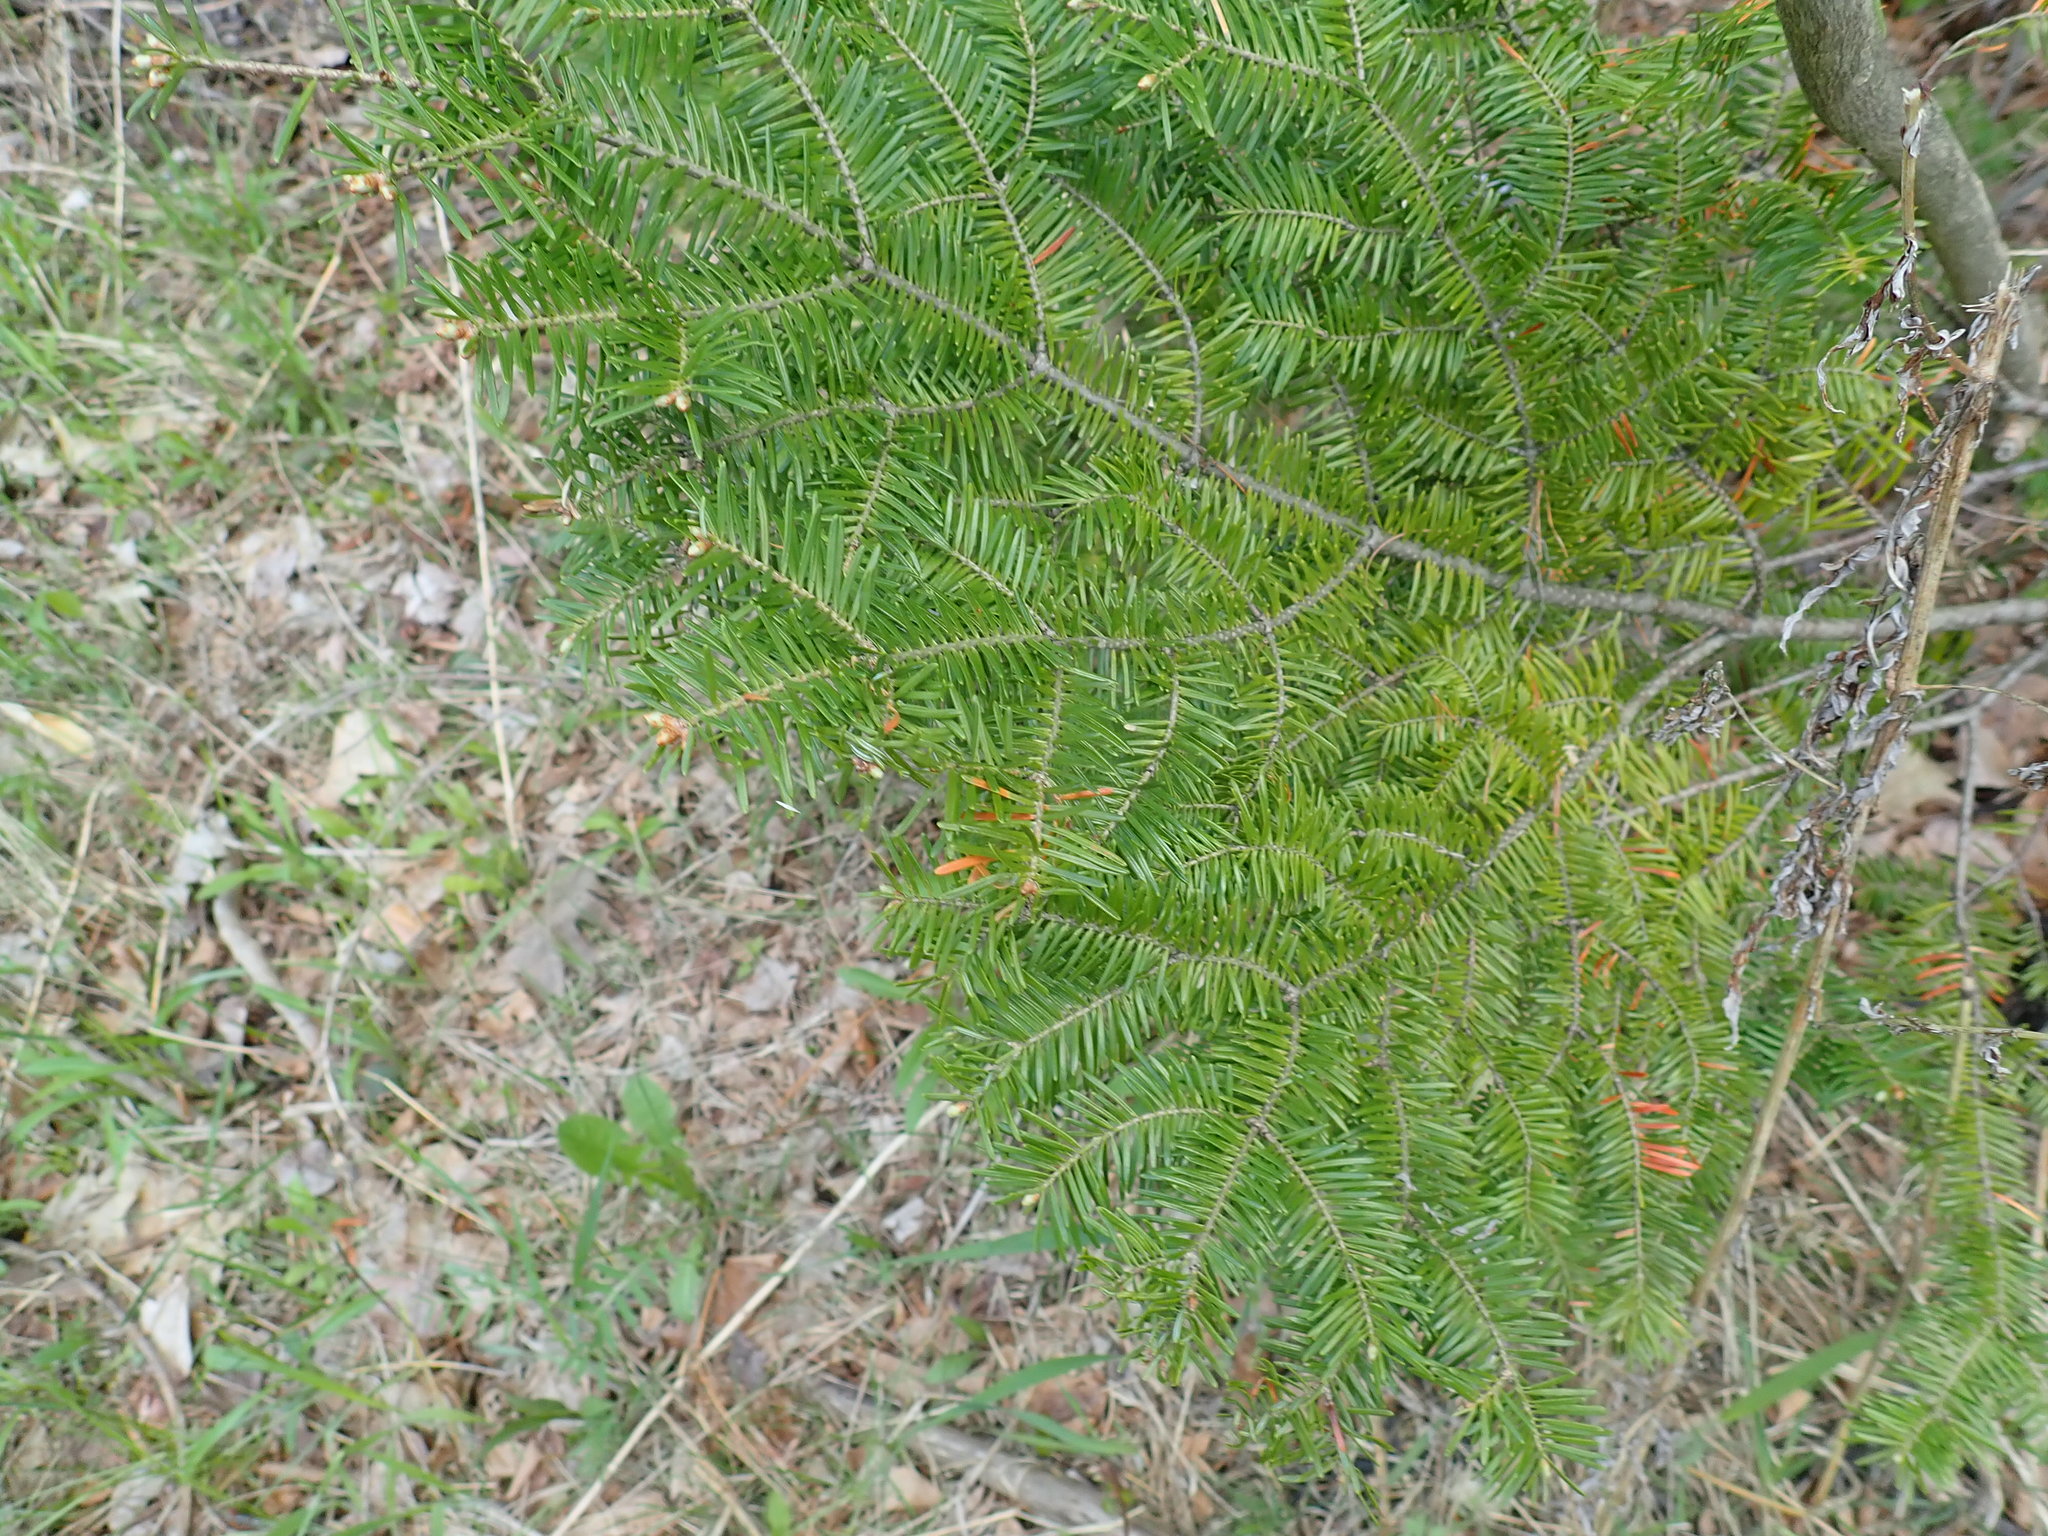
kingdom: Plantae
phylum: Tracheophyta
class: Pinopsida
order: Pinales
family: Pinaceae
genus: Abies
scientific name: Abies balsamea
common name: Balsam fir
